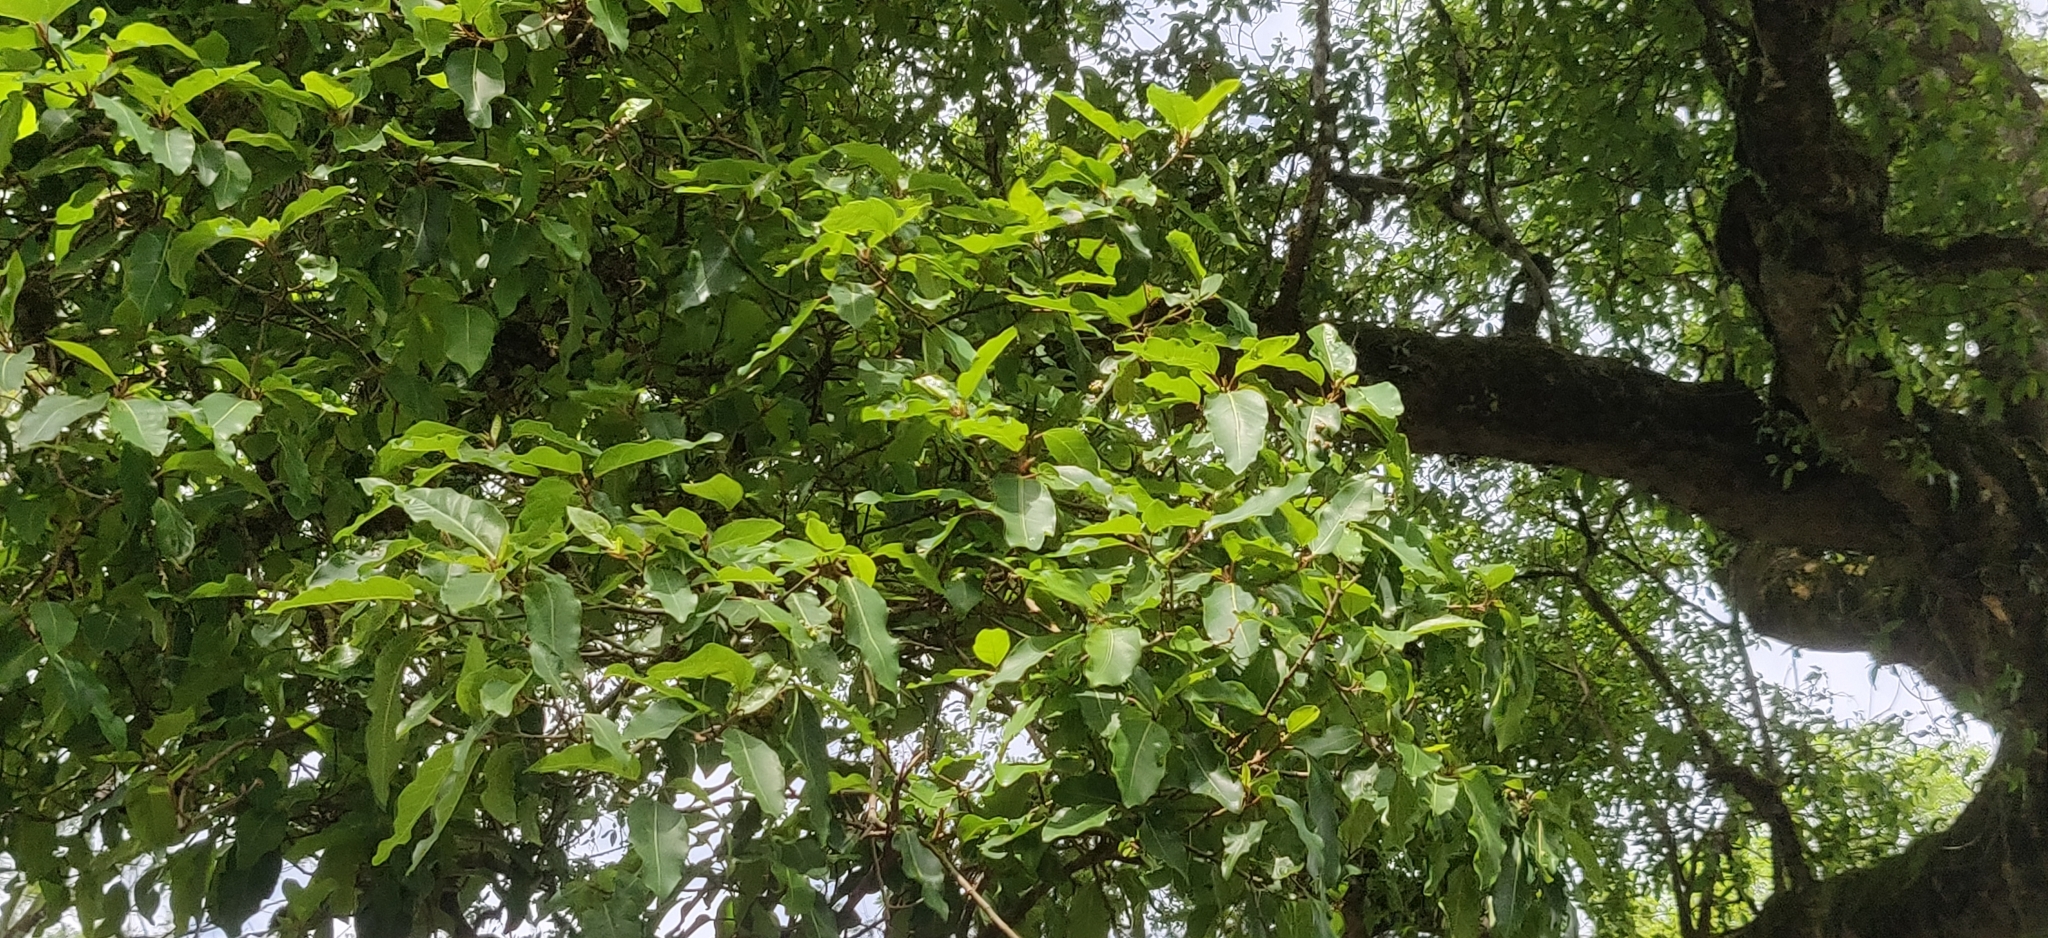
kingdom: Plantae
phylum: Tracheophyta
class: Magnoliopsida
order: Rosales
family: Moraceae
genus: Ficus
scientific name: Ficus racemosa
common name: Cluster fig
